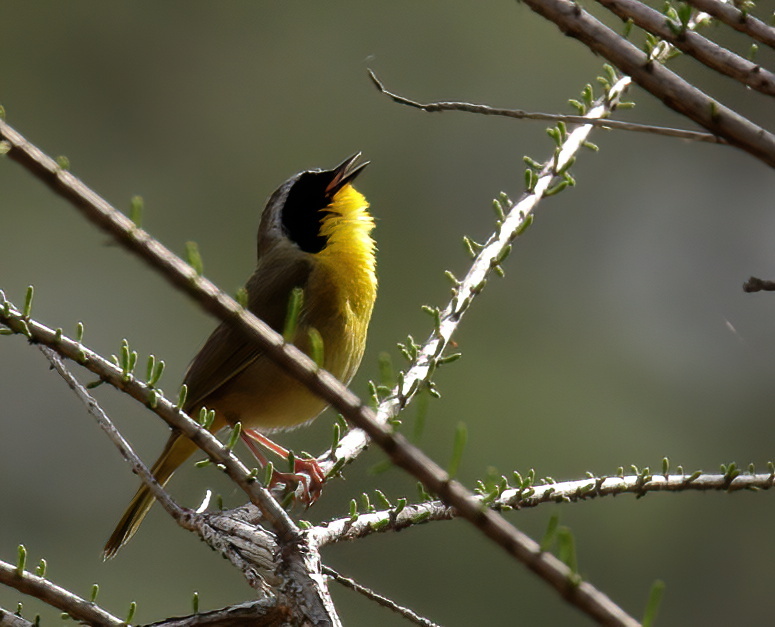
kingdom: Animalia
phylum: Chordata
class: Aves
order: Passeriformes
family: Parulidae
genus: Geothlypis
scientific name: Geothlypis trichas
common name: Common yellowthroat
